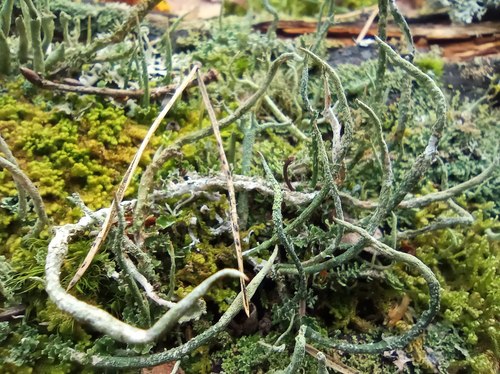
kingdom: Fungi
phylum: Ascomycota
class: Lecanoromycetes
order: Lecanorales
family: Cladoniaceae
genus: Cladonia
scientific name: Cladonia cornuta
